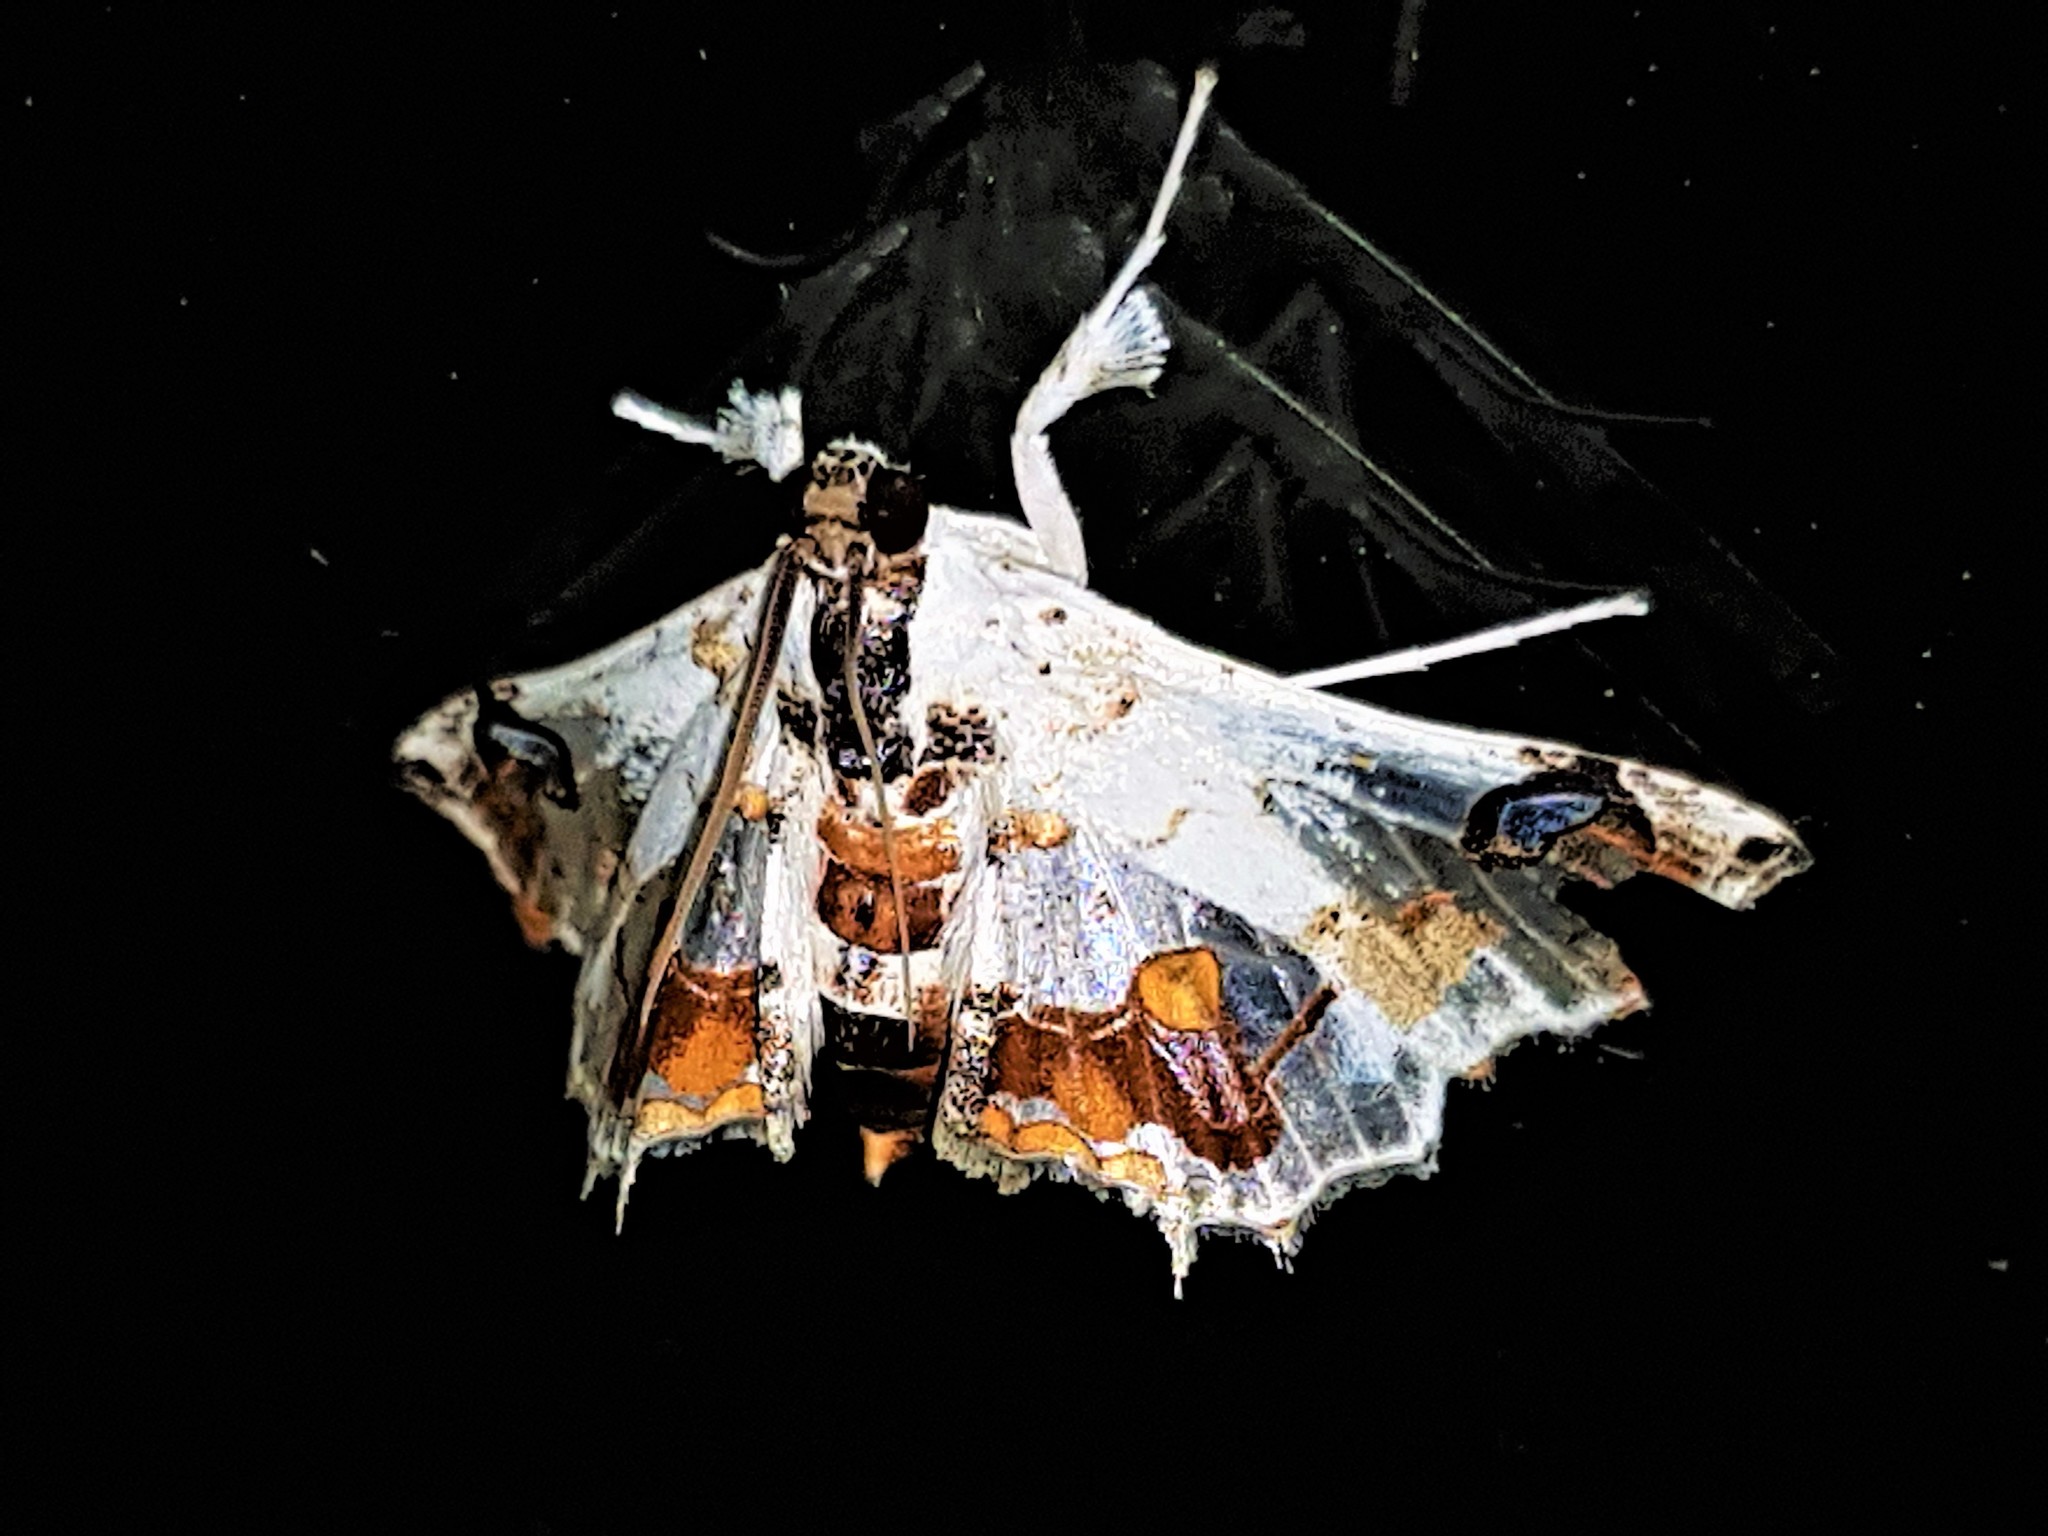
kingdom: Animalia
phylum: Arthropoda
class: Insecta
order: Lepidoptera
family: Crambidae
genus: Hositea
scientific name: Hositea regina
